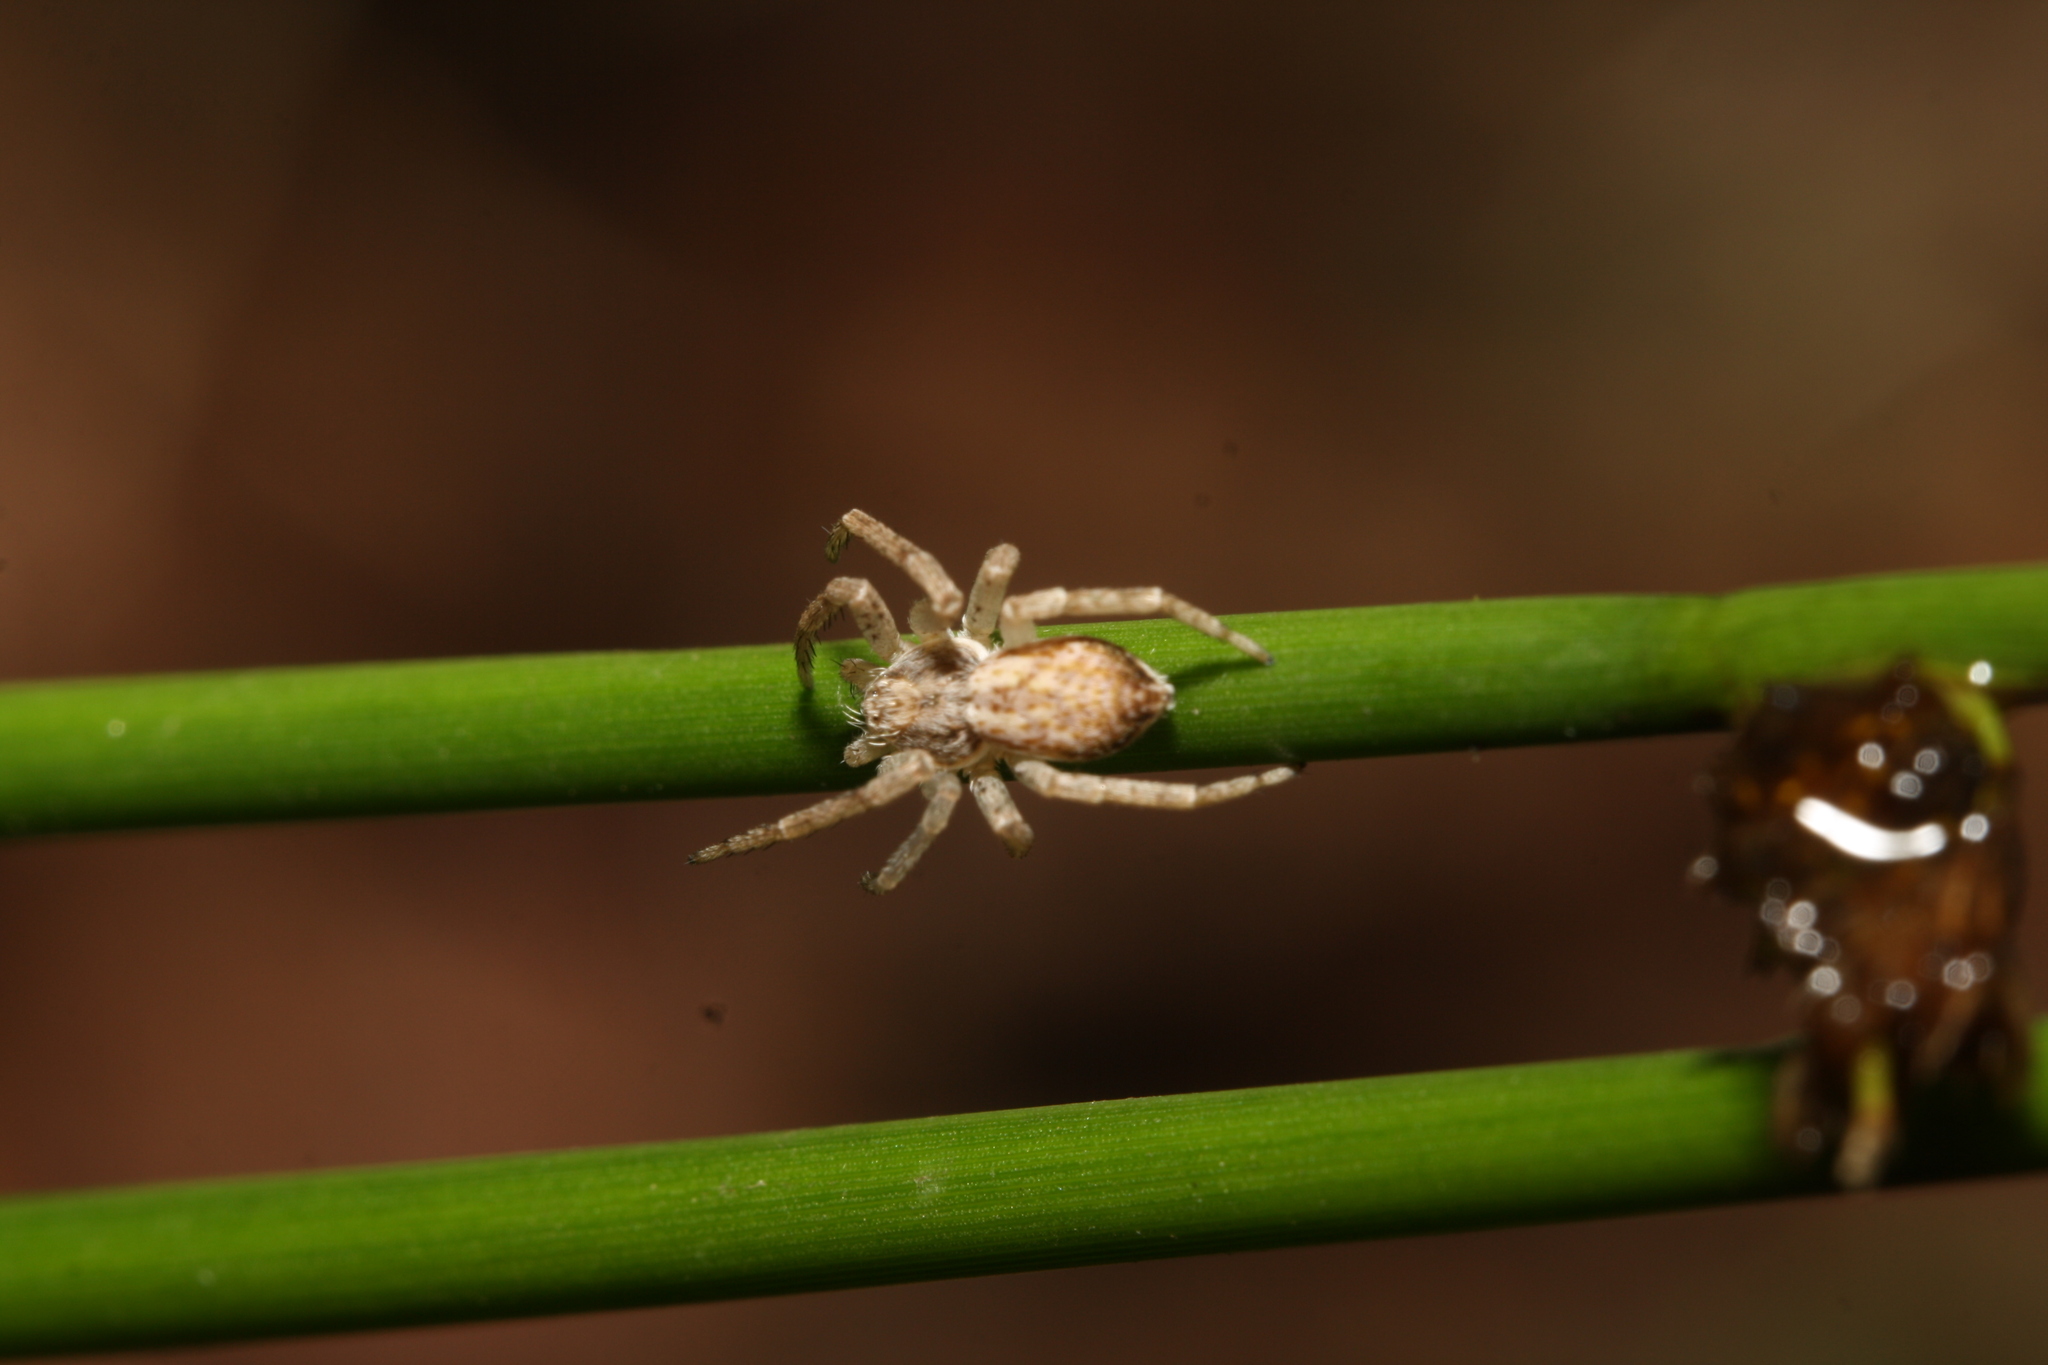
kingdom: Animalia
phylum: Arthropoda
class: Arachnida
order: Araneae
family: Philodromidae
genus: Philodromus
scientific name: Philodromus dispar
